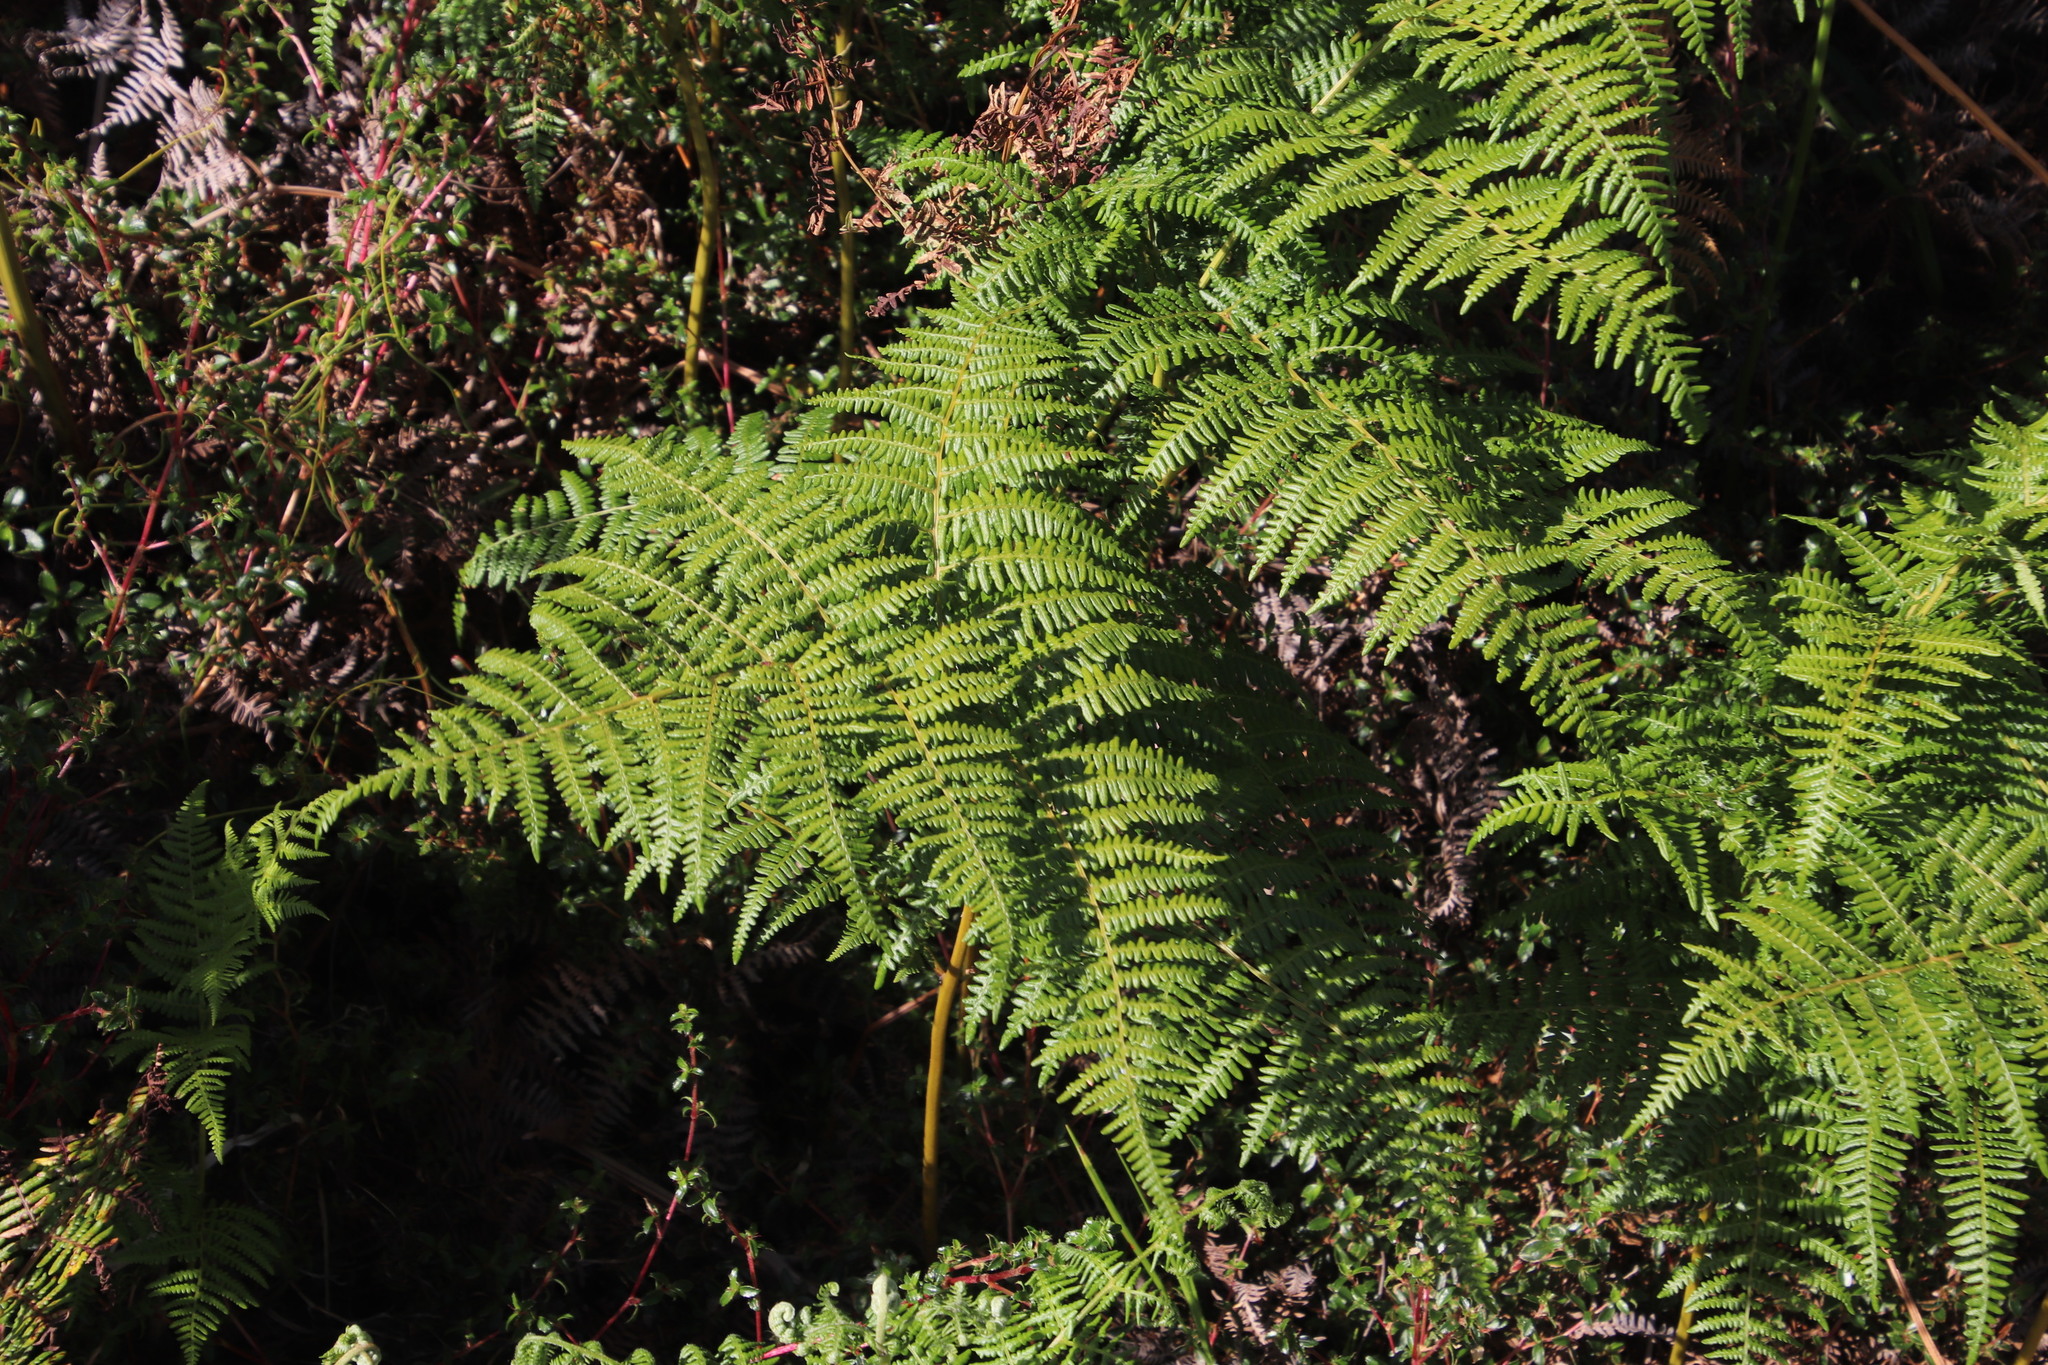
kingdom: Plantae
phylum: Tracheophyta
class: Polypodiopsida
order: Polypodiales
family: Dennstaedtiaceae
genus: Pteridium
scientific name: Pteridium aquilinum
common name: Bracken
